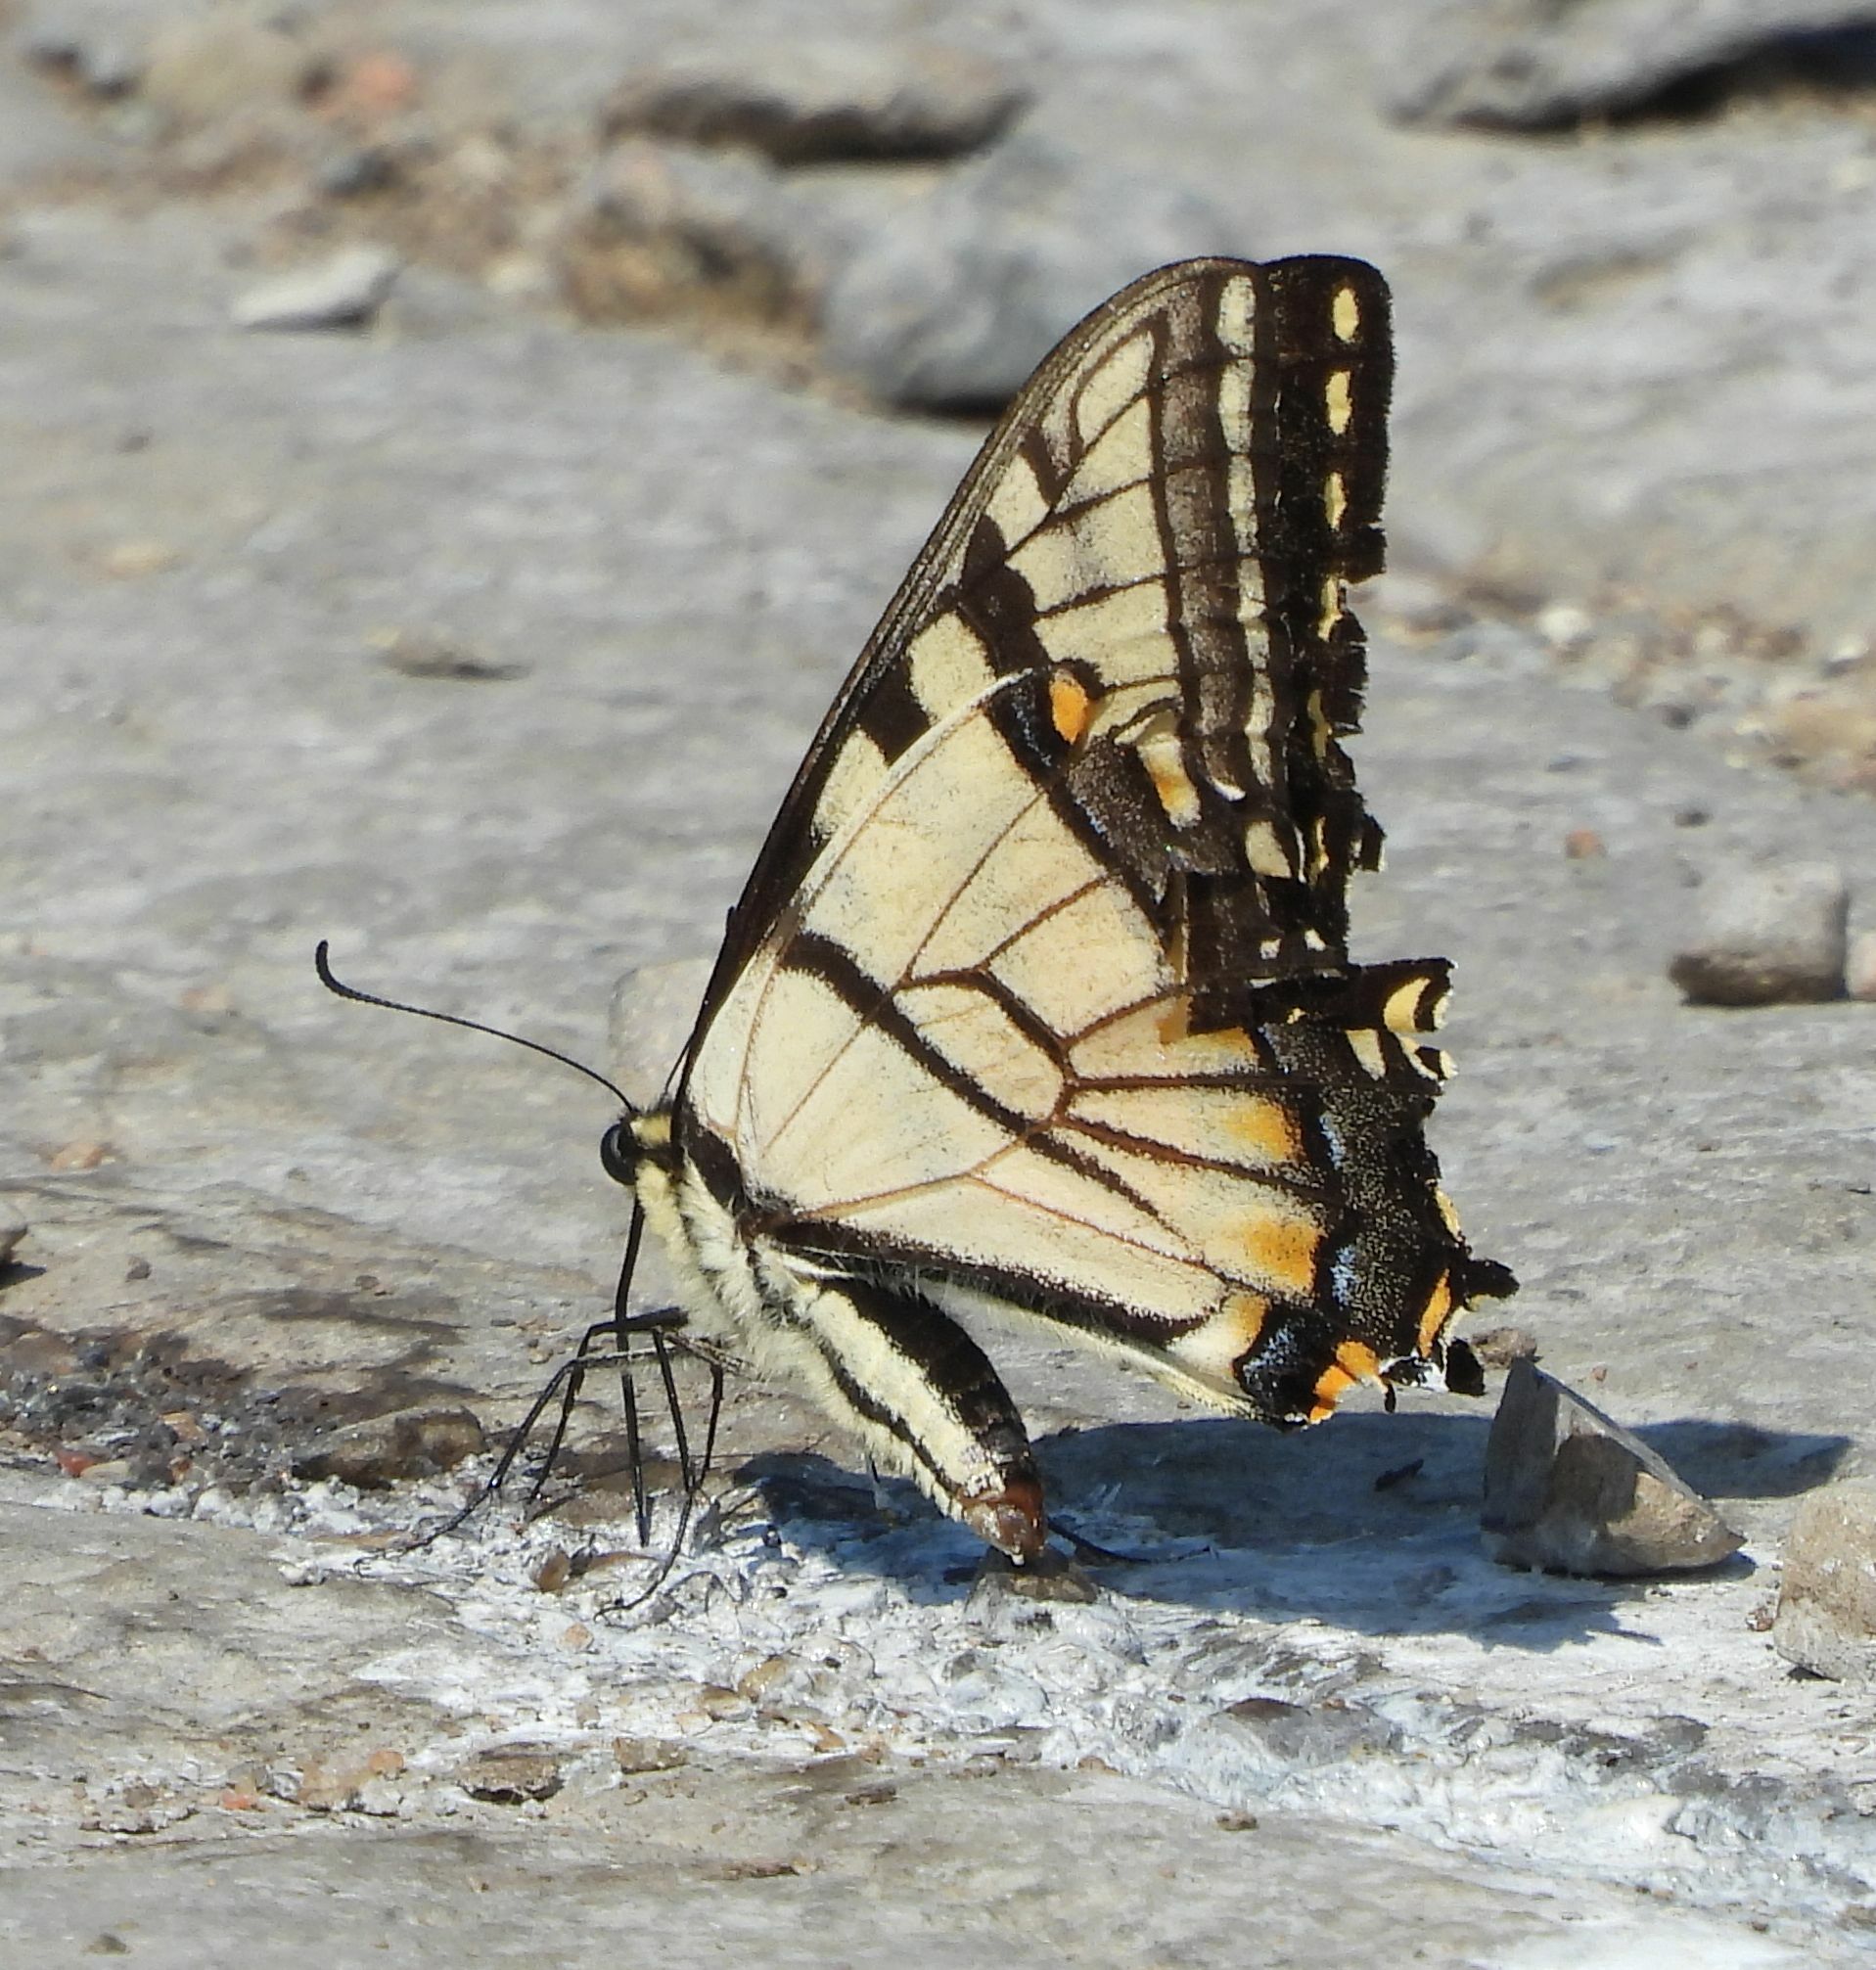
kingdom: Animalia
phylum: Arthropoda
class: Insecta
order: Lepidoptera
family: Papilionidae
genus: Papilio
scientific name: Papilio
